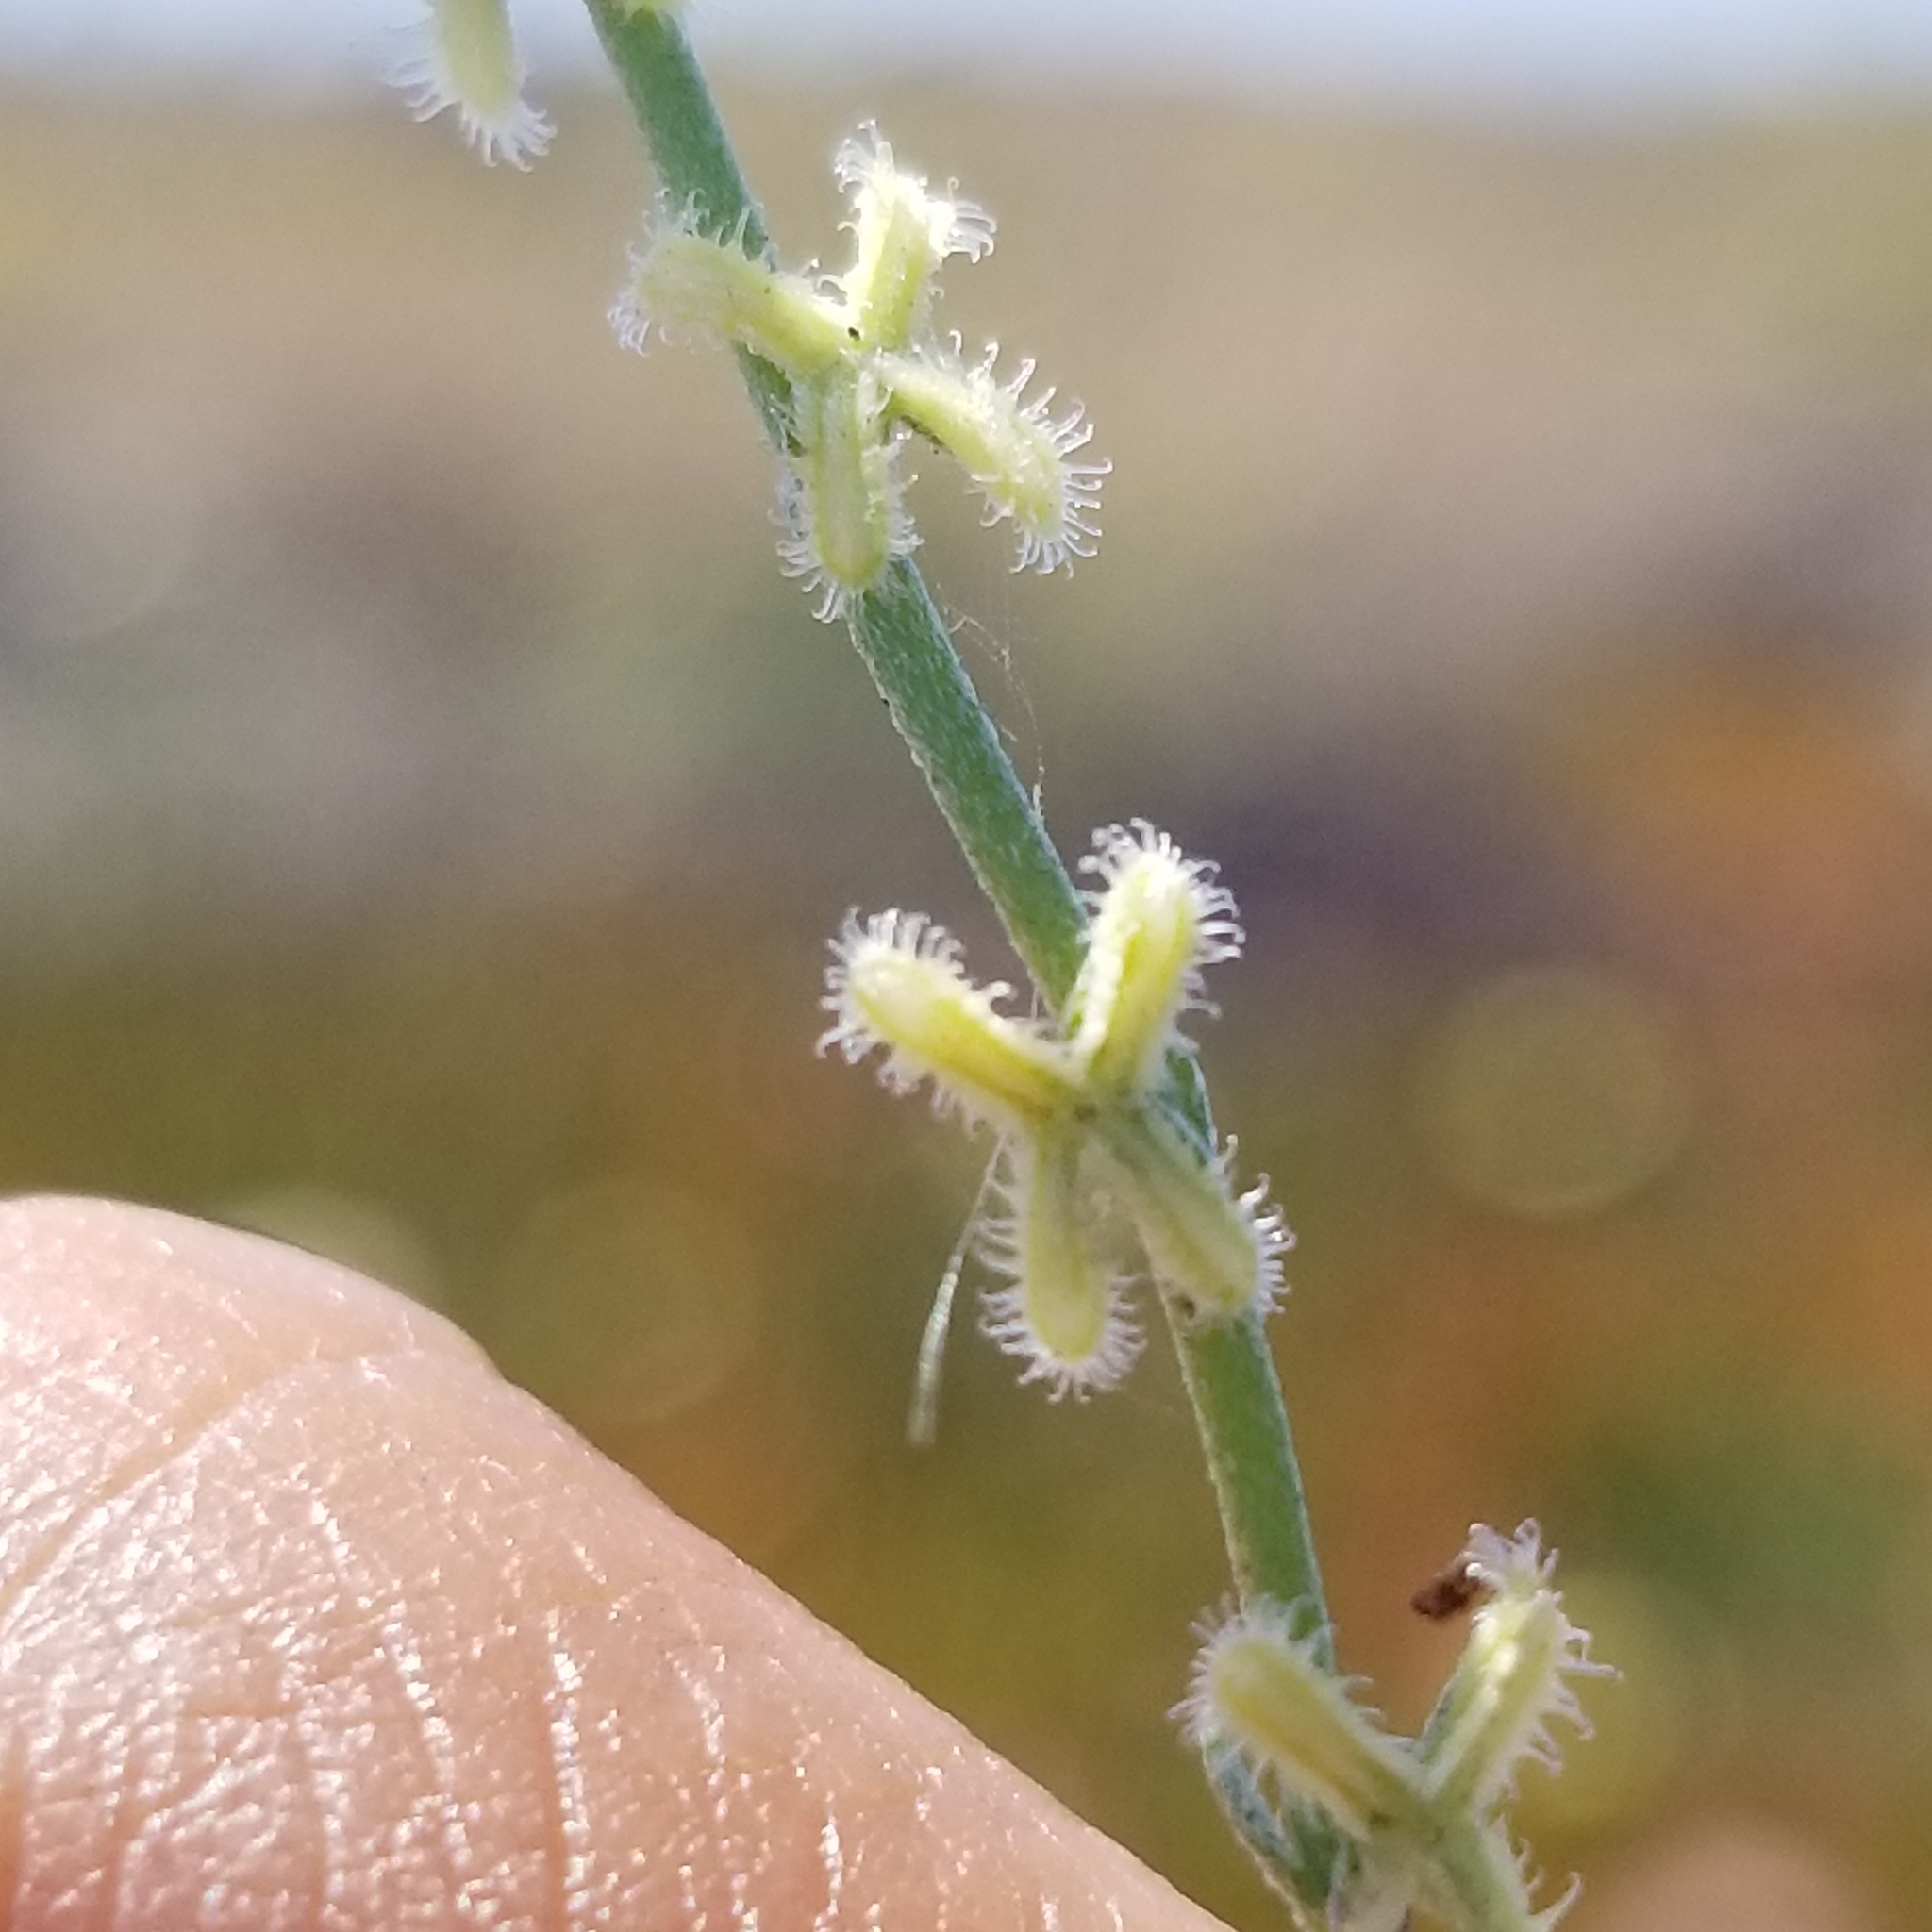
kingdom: Plantae
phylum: Tracheophyta
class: Magnoliopsida
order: Boraginales
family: Boraginaceae
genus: Pectocarya
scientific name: Pectocarya linearis
